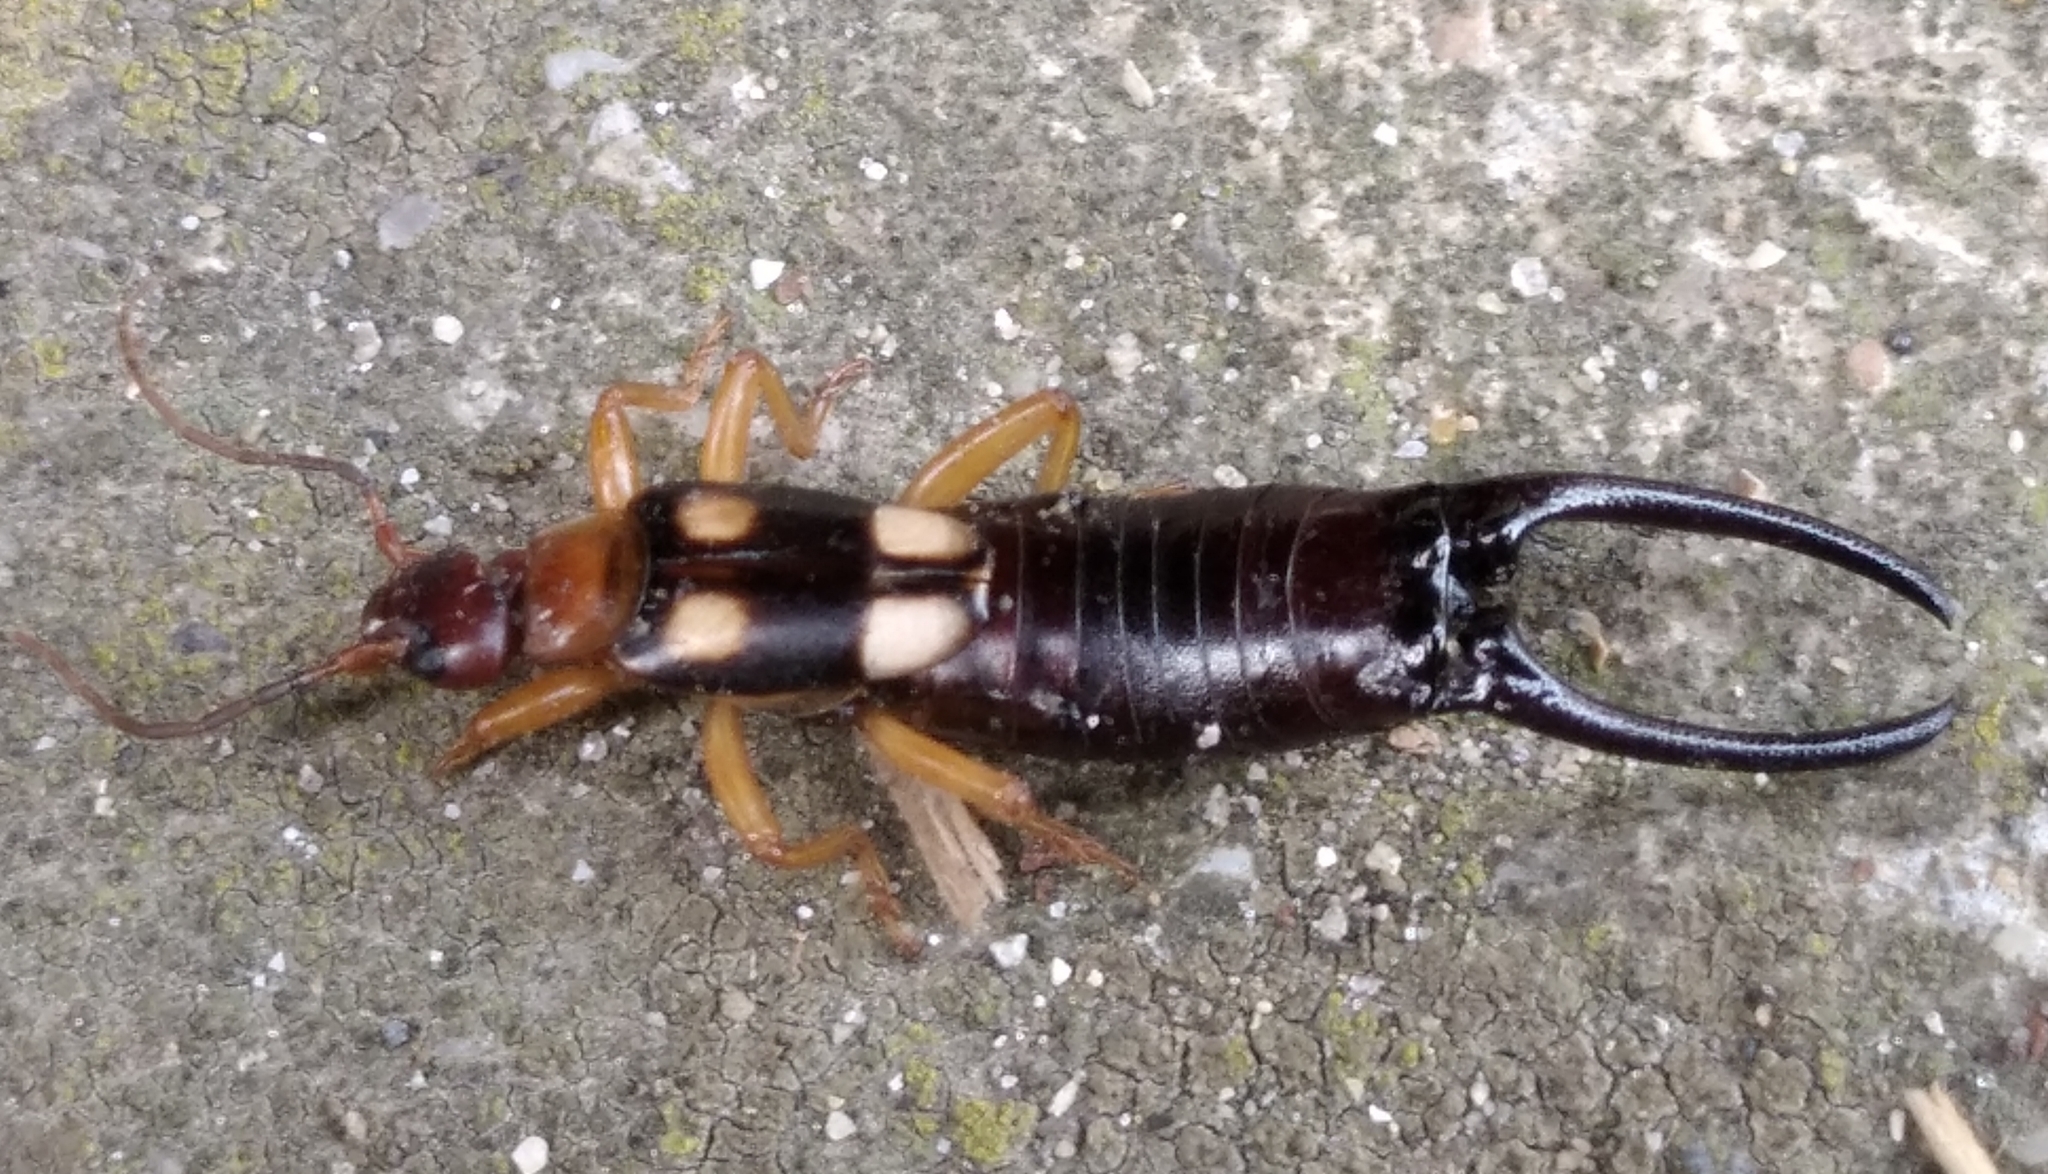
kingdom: Animalia
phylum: Arthropoda
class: Insecta
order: Dermaptera
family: Forficulidae
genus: Forficula
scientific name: Forficula smyrnensis
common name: Smyrna earwig
